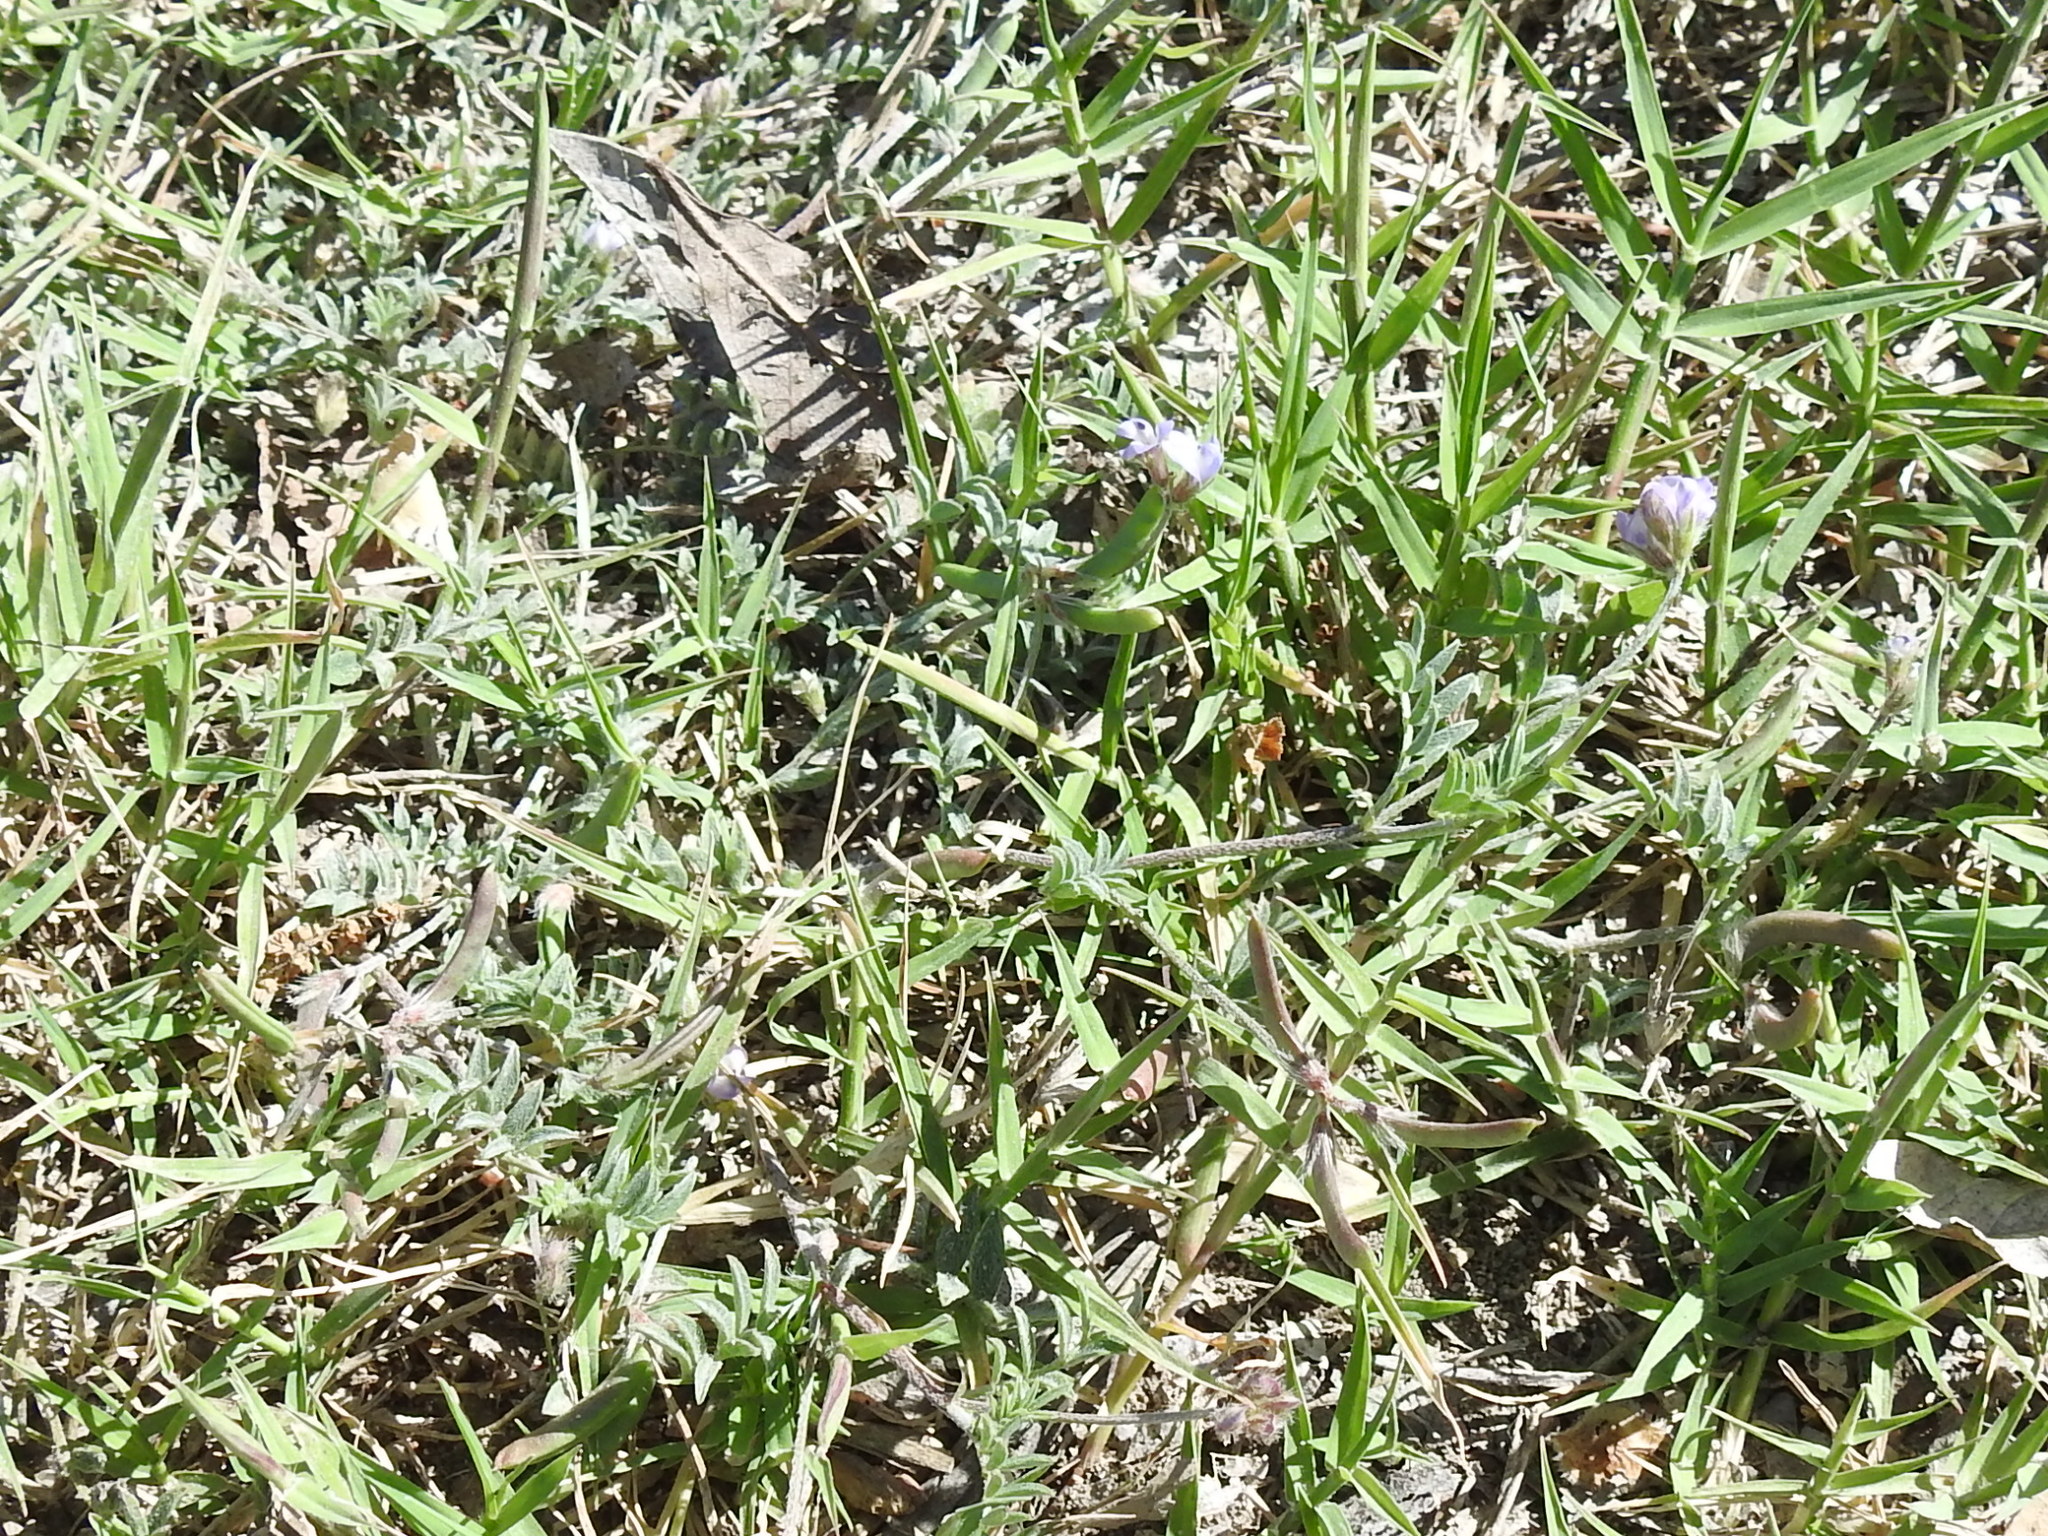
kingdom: Plantae
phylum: Tracheophyta
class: Magnoliopsida
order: Fabales
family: Fabaceae
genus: Astragalus
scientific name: Astragalus nuttallianus
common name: Smallflowered milkvetch
